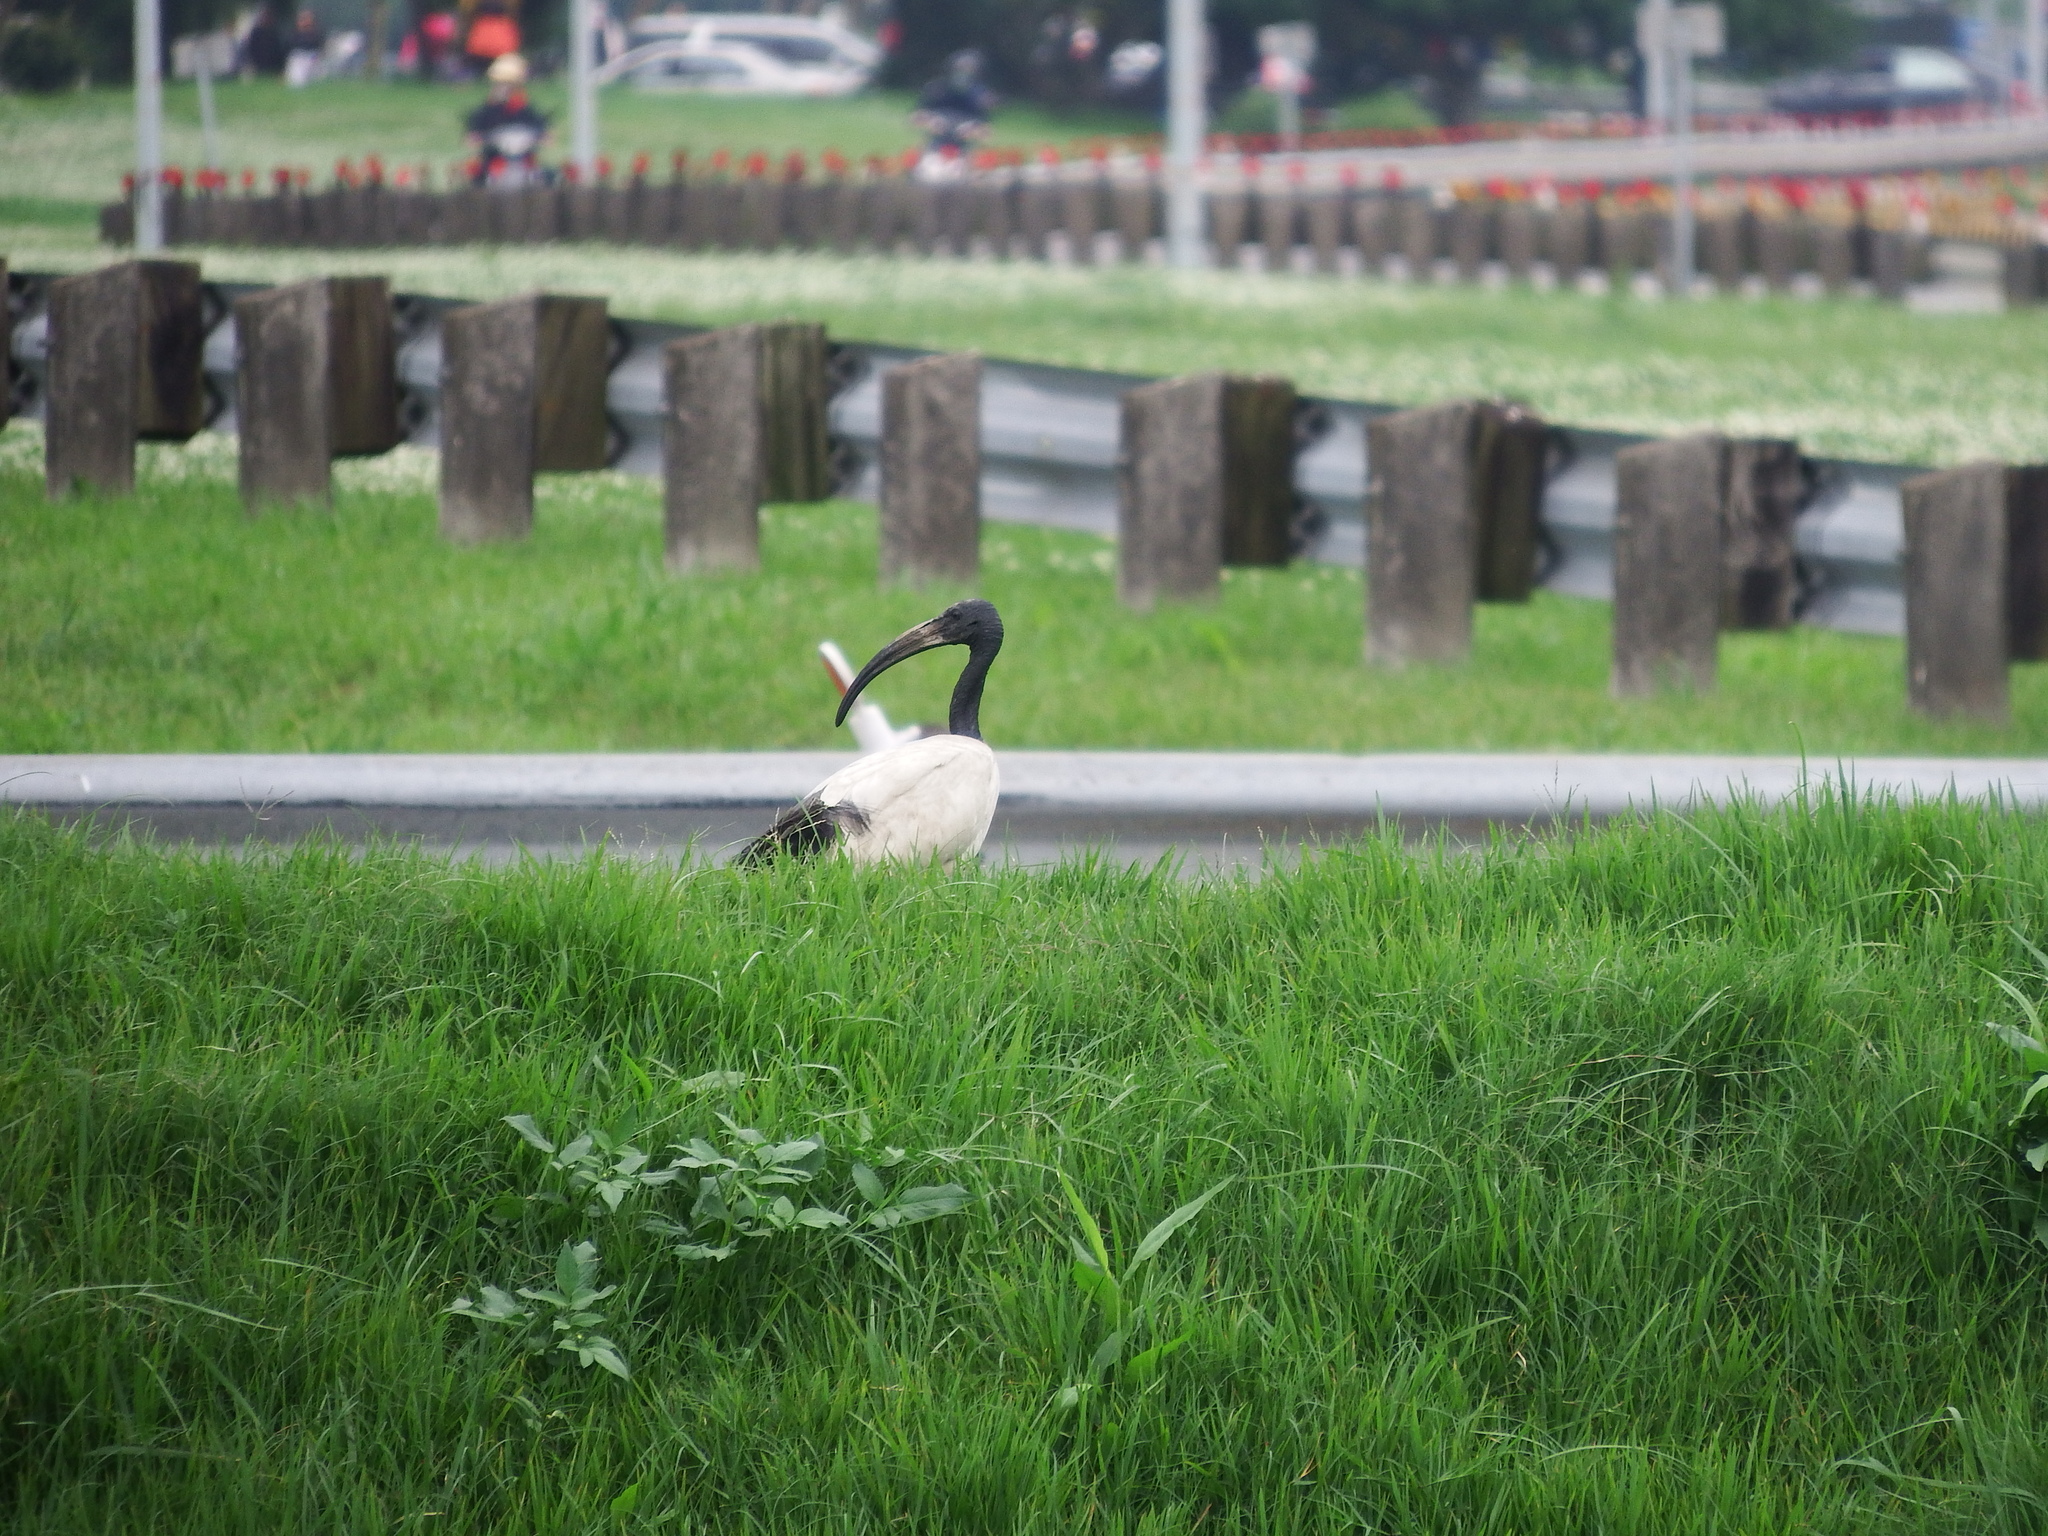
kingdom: Animalia
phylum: Chordata
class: Aves
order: Pelecaniformes
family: Threskiornithidae
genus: Threskiornis
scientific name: Threskiornis aethiopicus
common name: Sacred ibis
